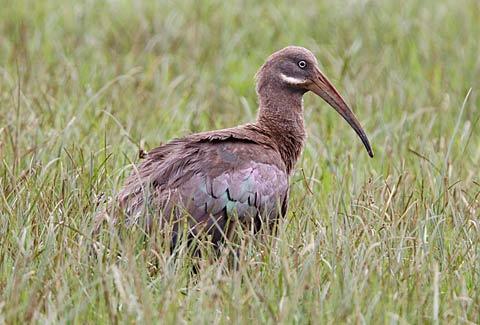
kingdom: Animalia
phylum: Chordata
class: Aves
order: Pelecaniformes
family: Threskiornithidae
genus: Bostrychia
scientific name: Bostrychia hagedash
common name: Hadada ibis
